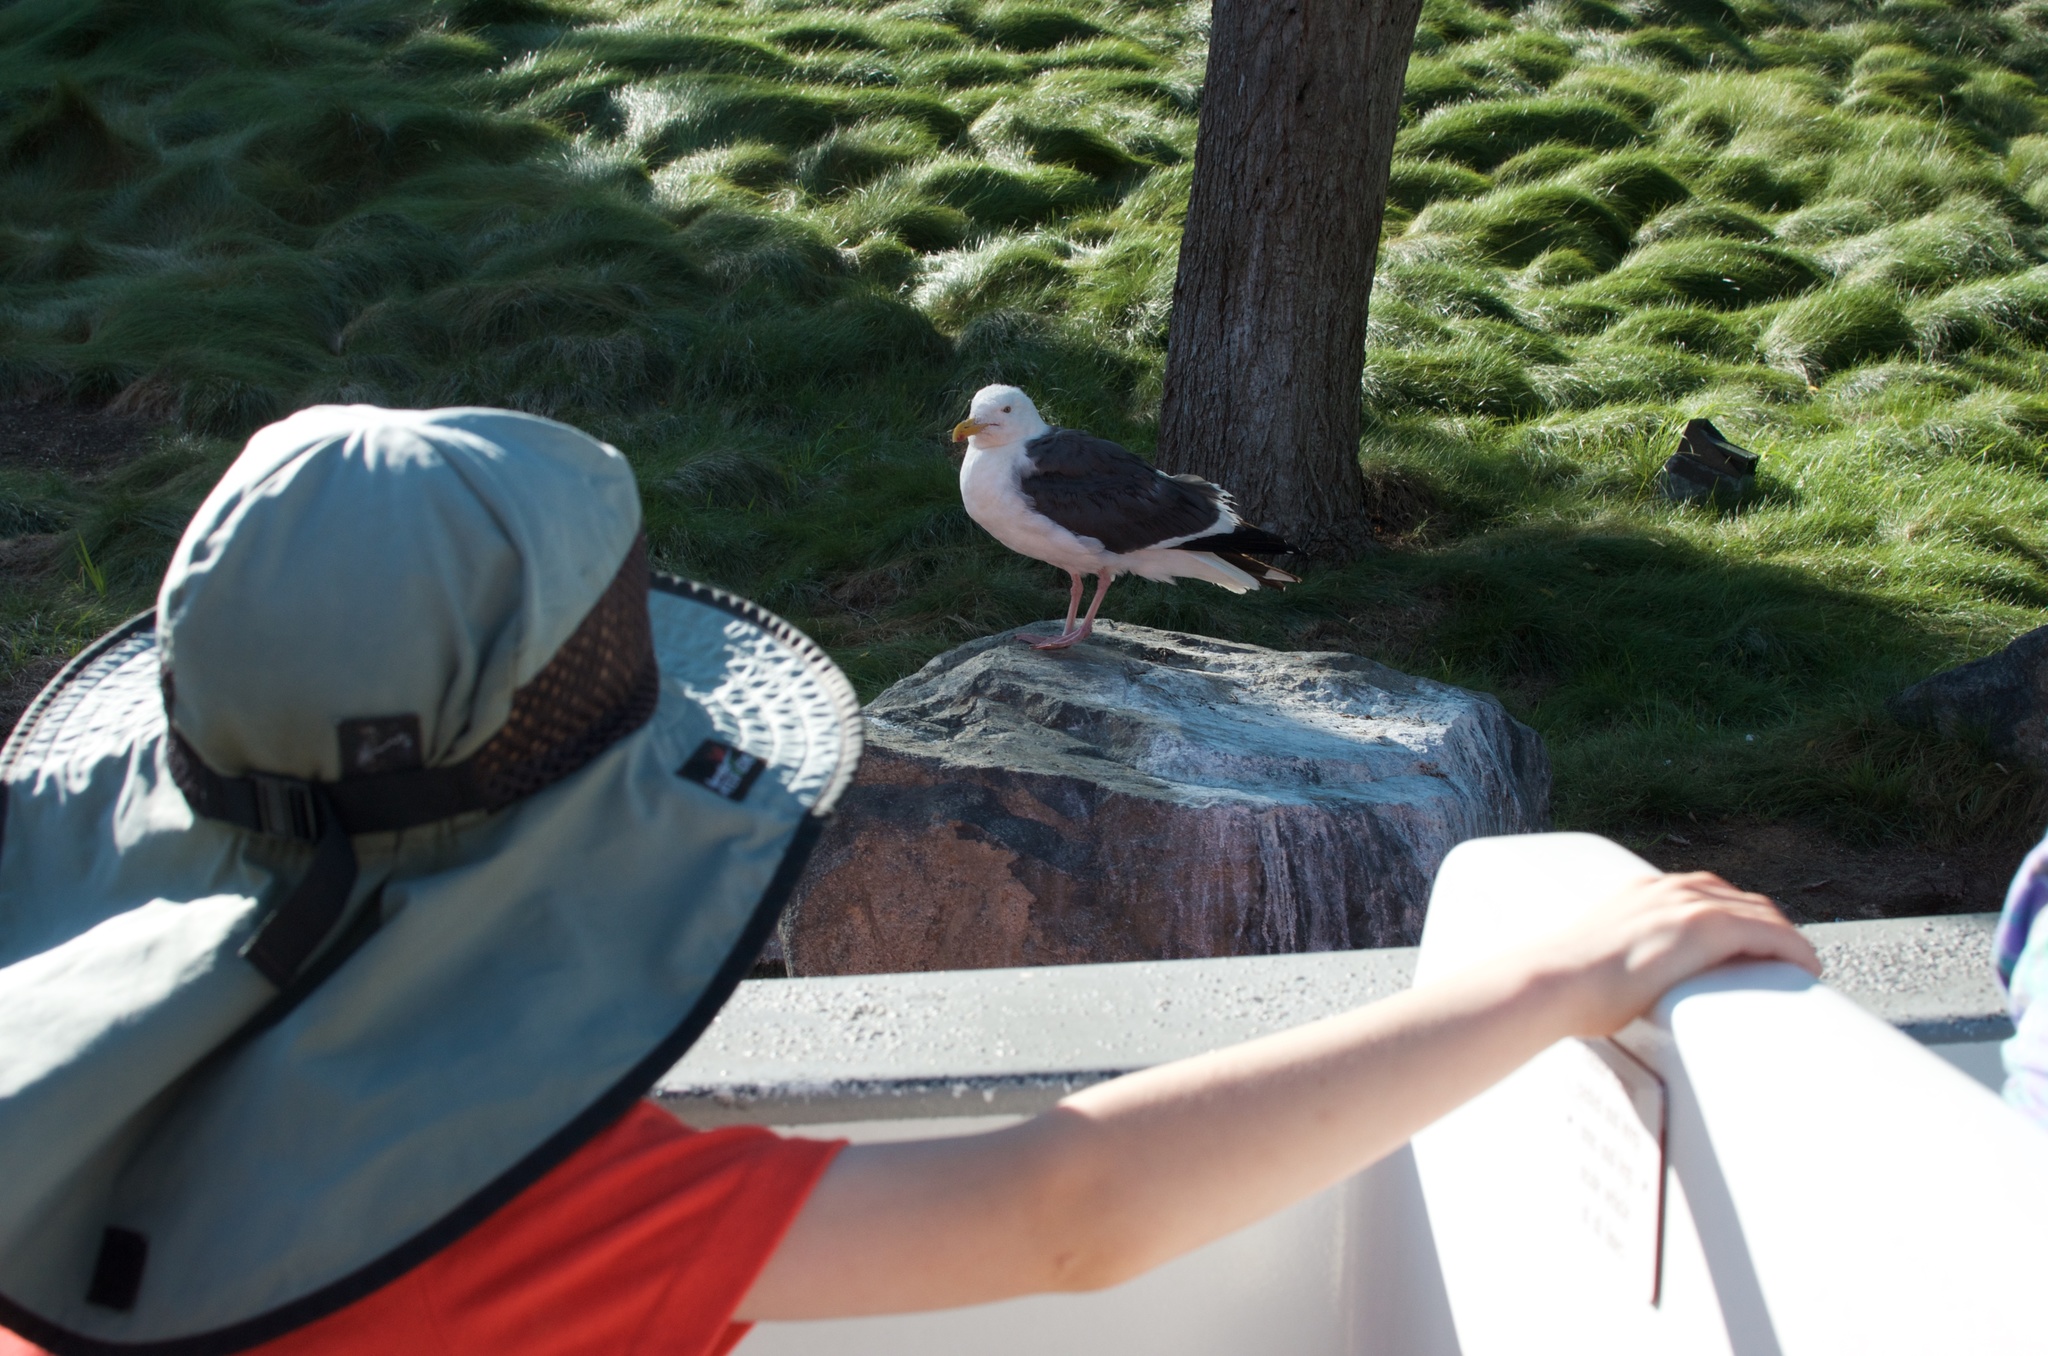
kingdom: Animalia
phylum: Chordata
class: Aves
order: Charadriiformes
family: Laridae
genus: Larus
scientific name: Larus occidentalis
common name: Western gull
